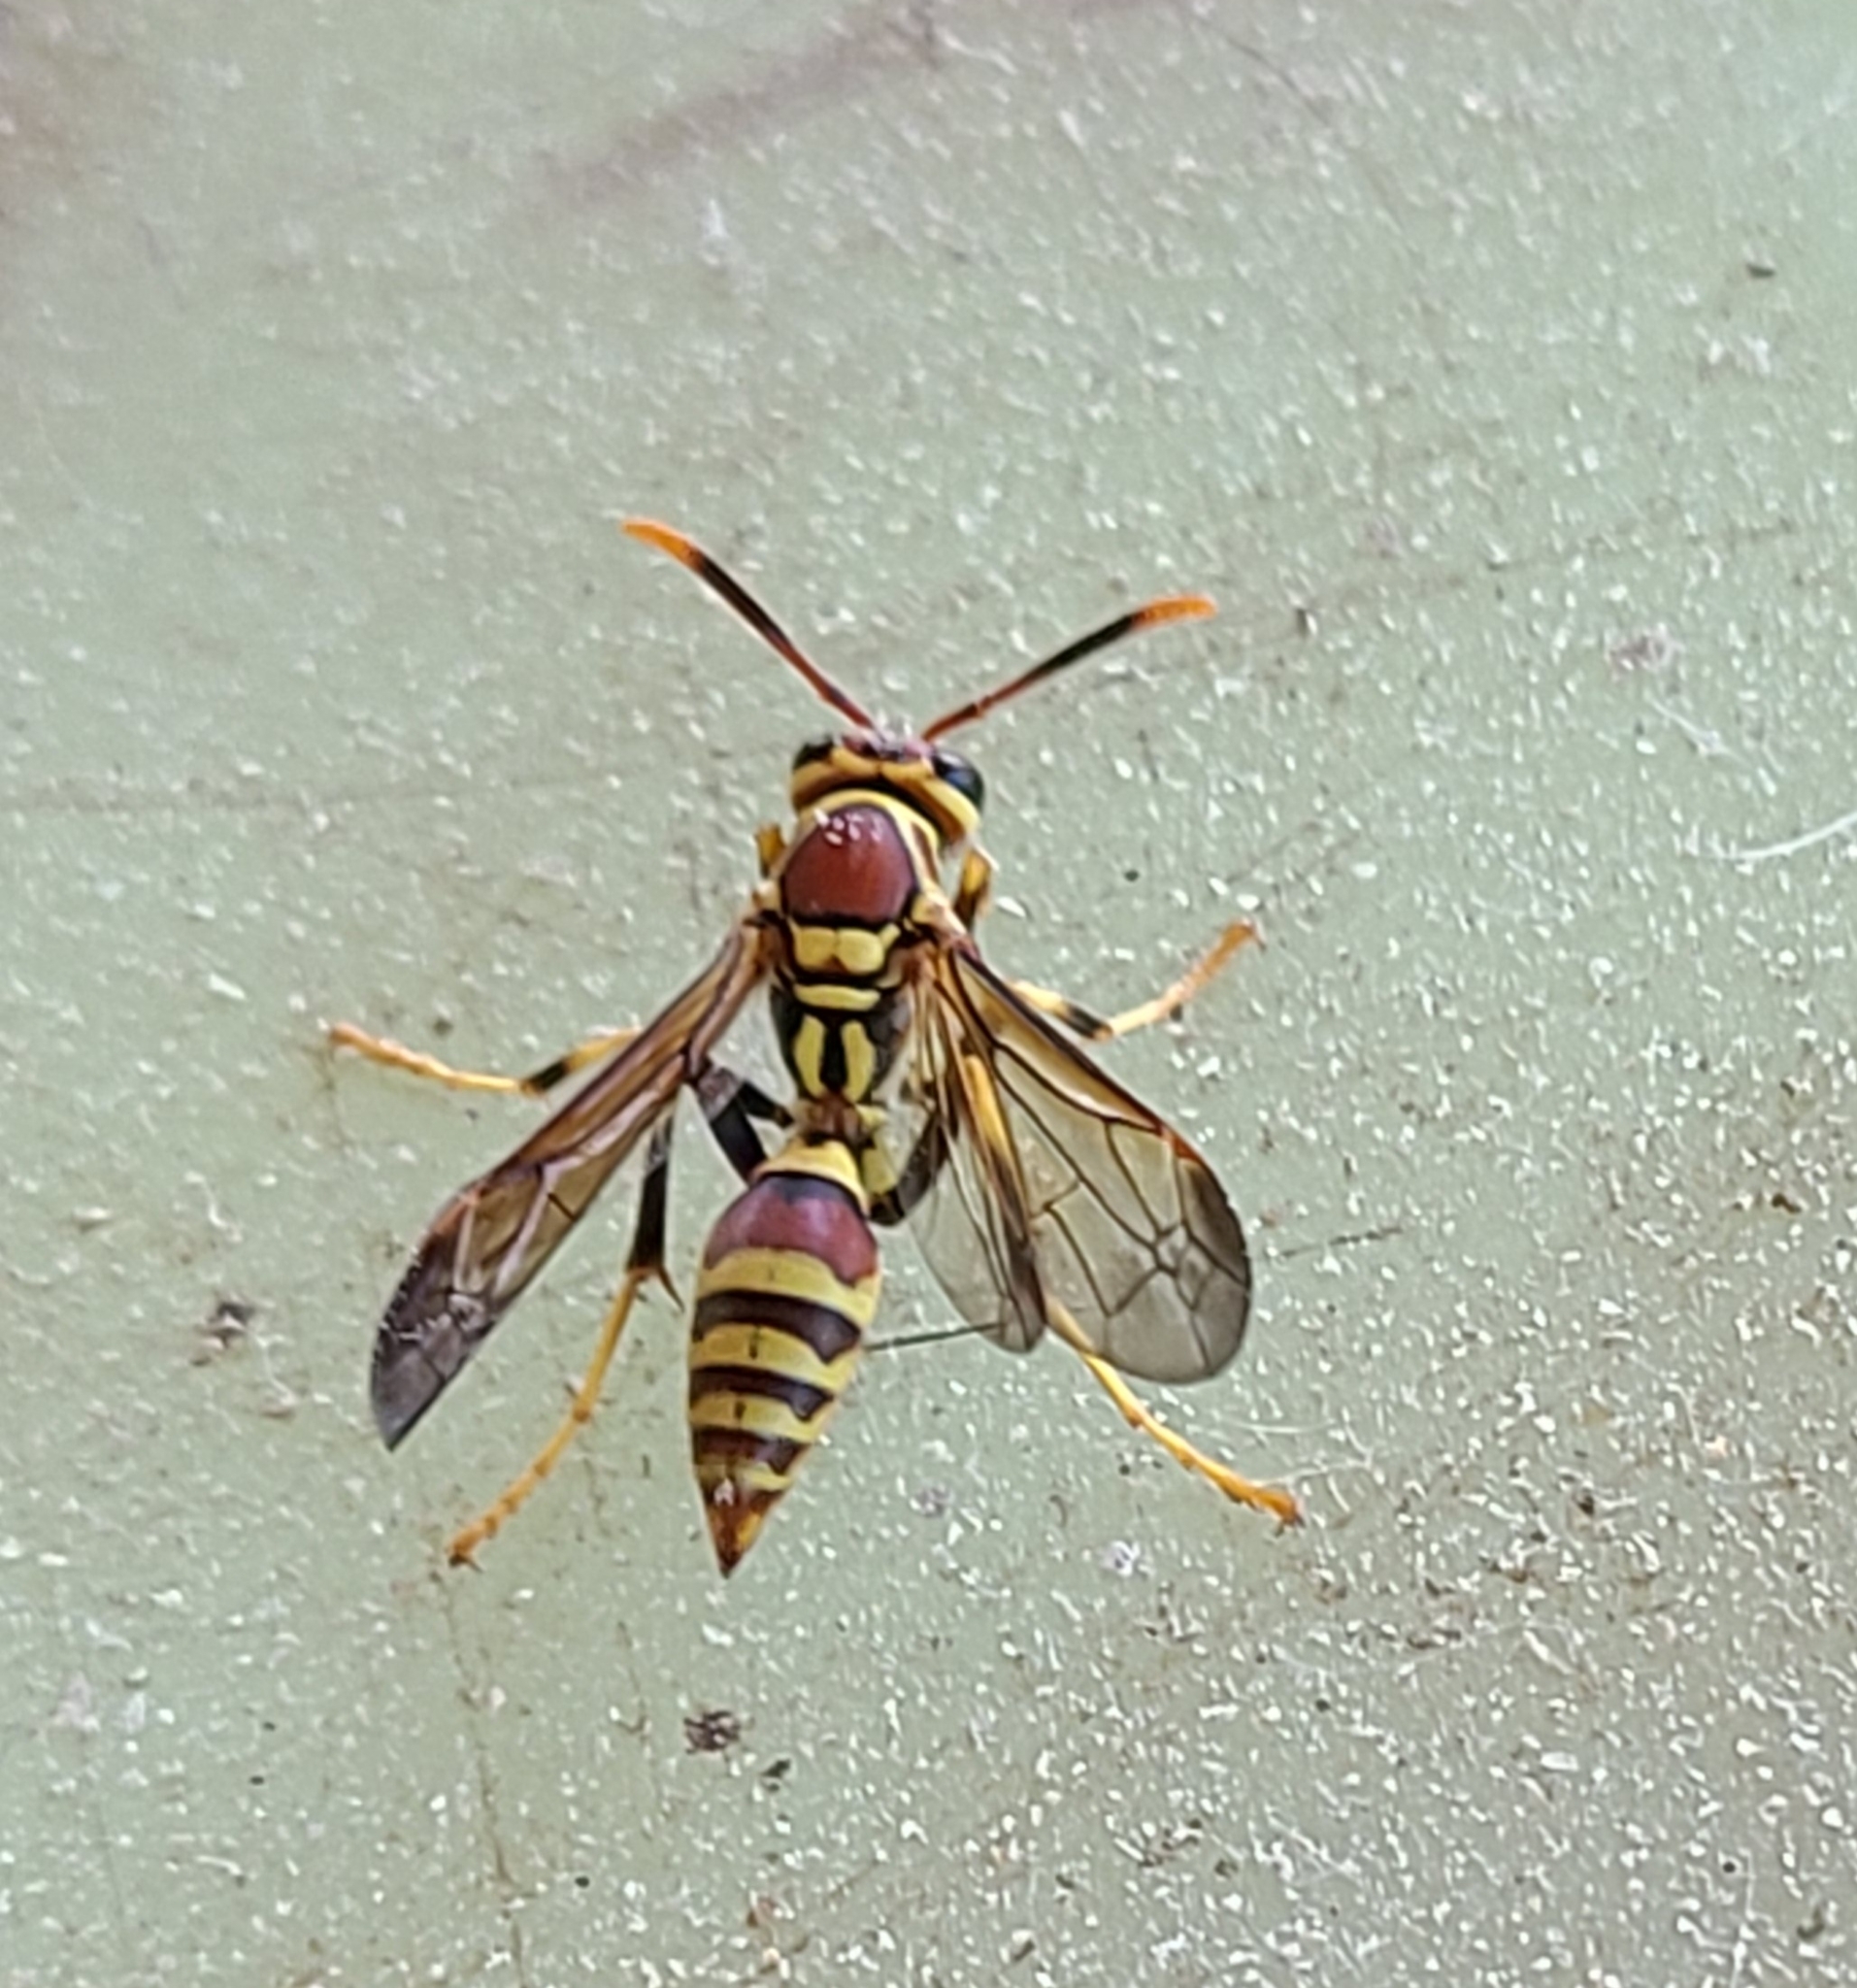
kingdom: Animalia
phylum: Arthropoda
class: Insecta
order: Hymenoptera
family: Eumenidae
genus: Polistes
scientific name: Polistes exclamans
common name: Paper wasp
